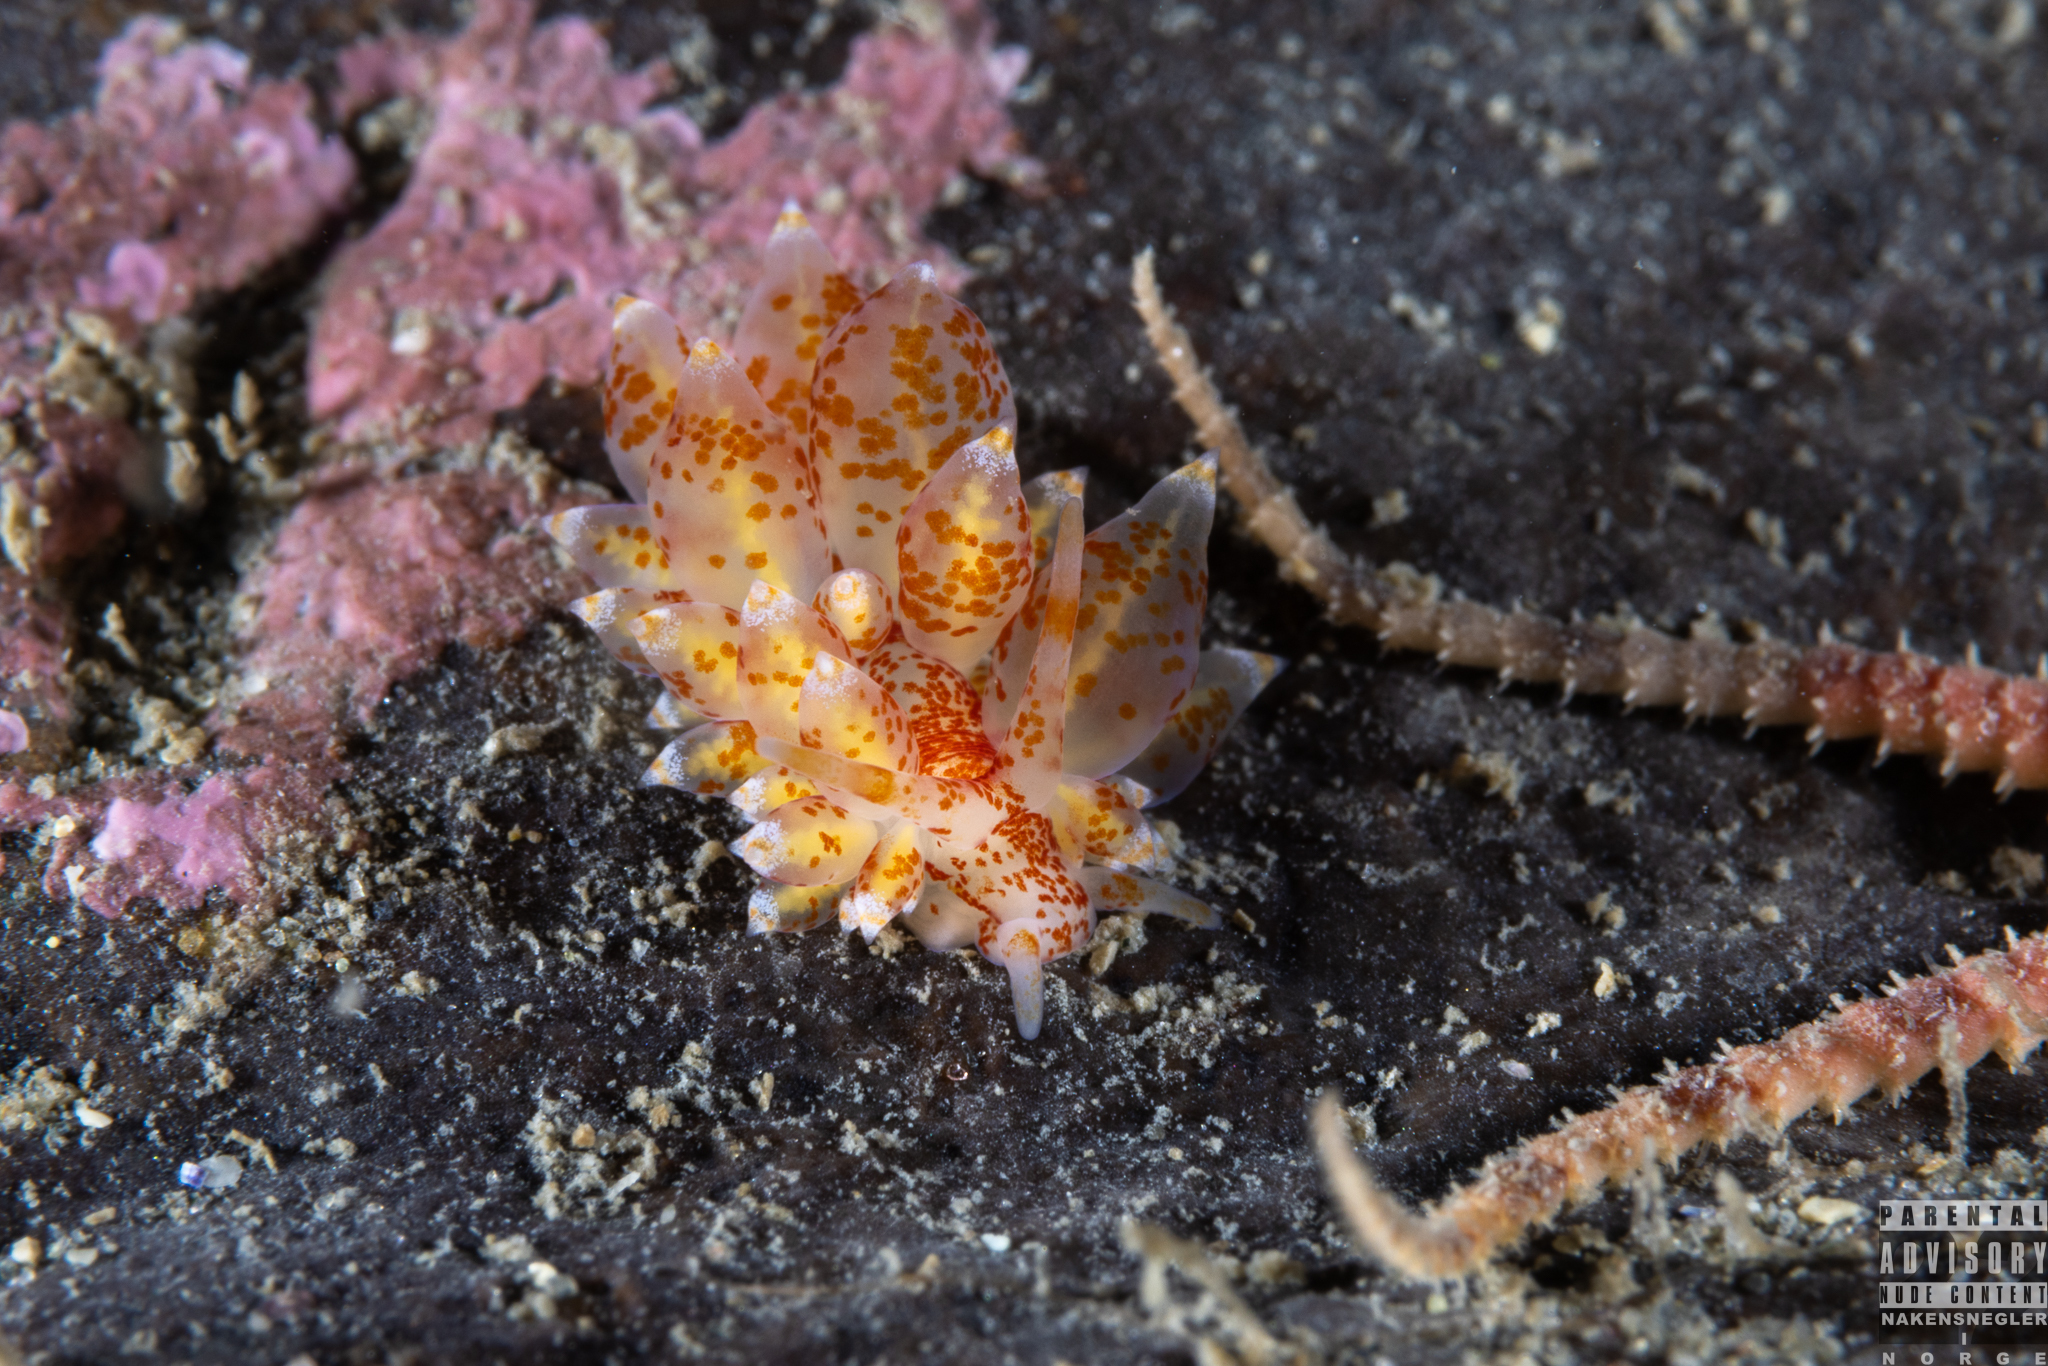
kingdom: Animalia
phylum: Mollusca
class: Gastropoda
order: Nudibranchia
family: Eubranchidae
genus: Amphorina
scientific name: Amphorina pallida
